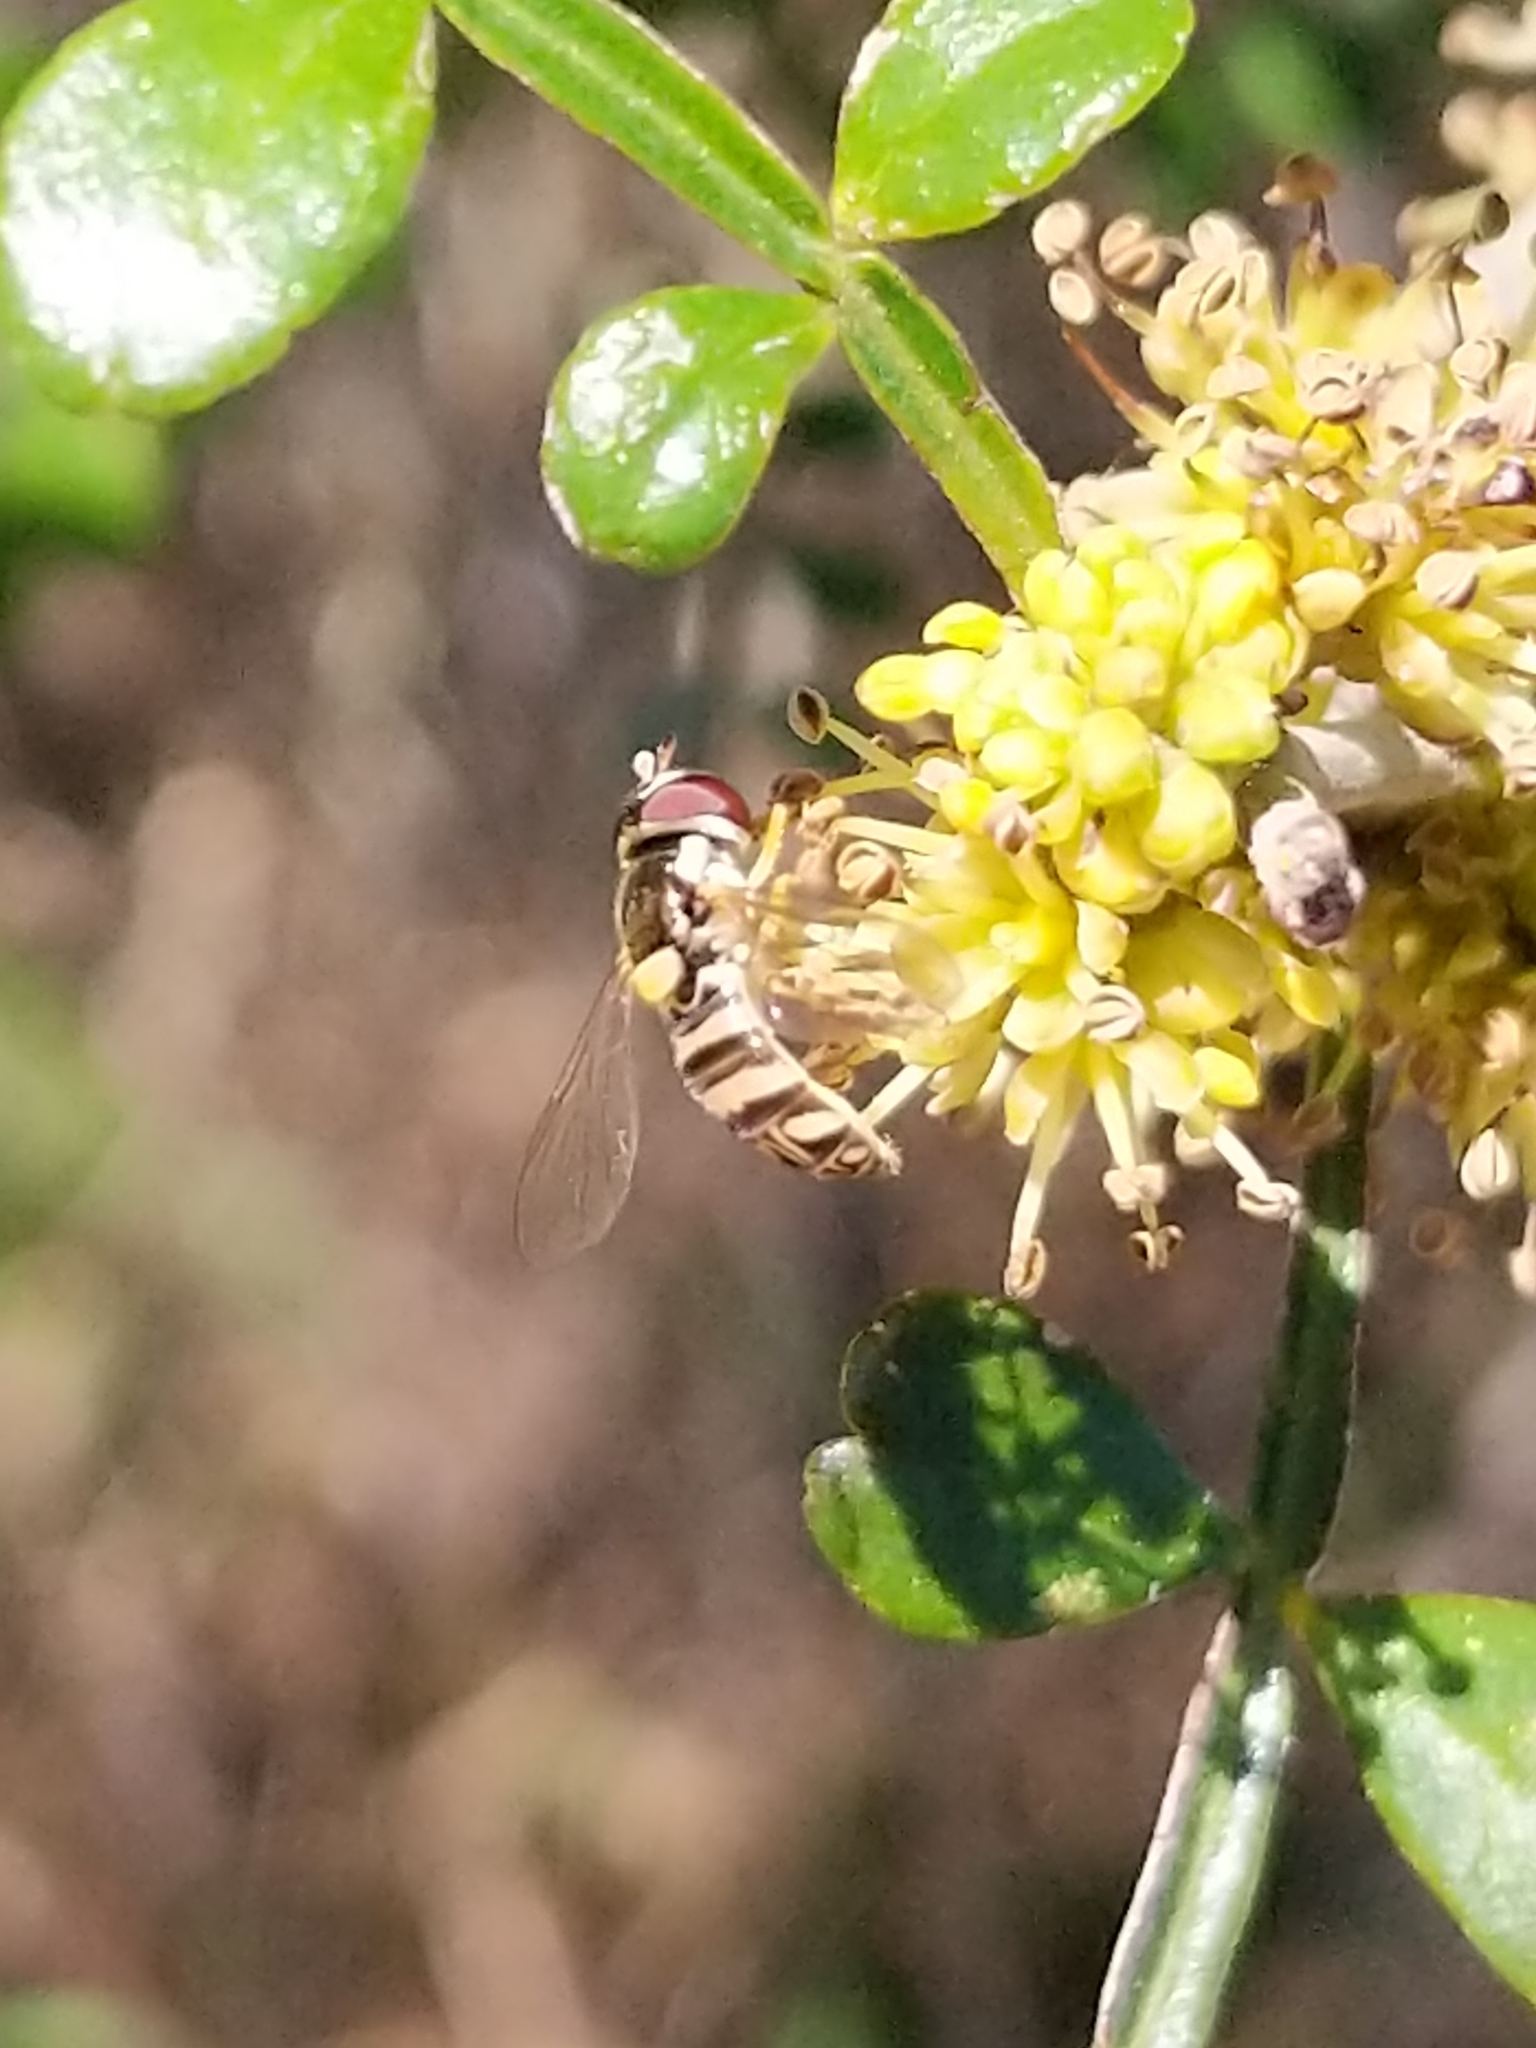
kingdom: Animalia
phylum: Arthropoda
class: Insecta
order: Diptera
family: Syrphidae
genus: Allograpta
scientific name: Allograpta exotica
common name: Syrphid fly
